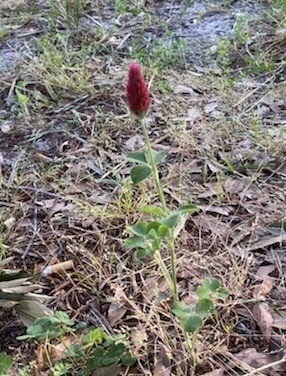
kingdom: Plantae
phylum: Tracheophyta
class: Magnoliopsida
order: Fabales
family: Fabaceae
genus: Trifolium
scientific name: Trifolium incarnatum
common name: Crimson clover
